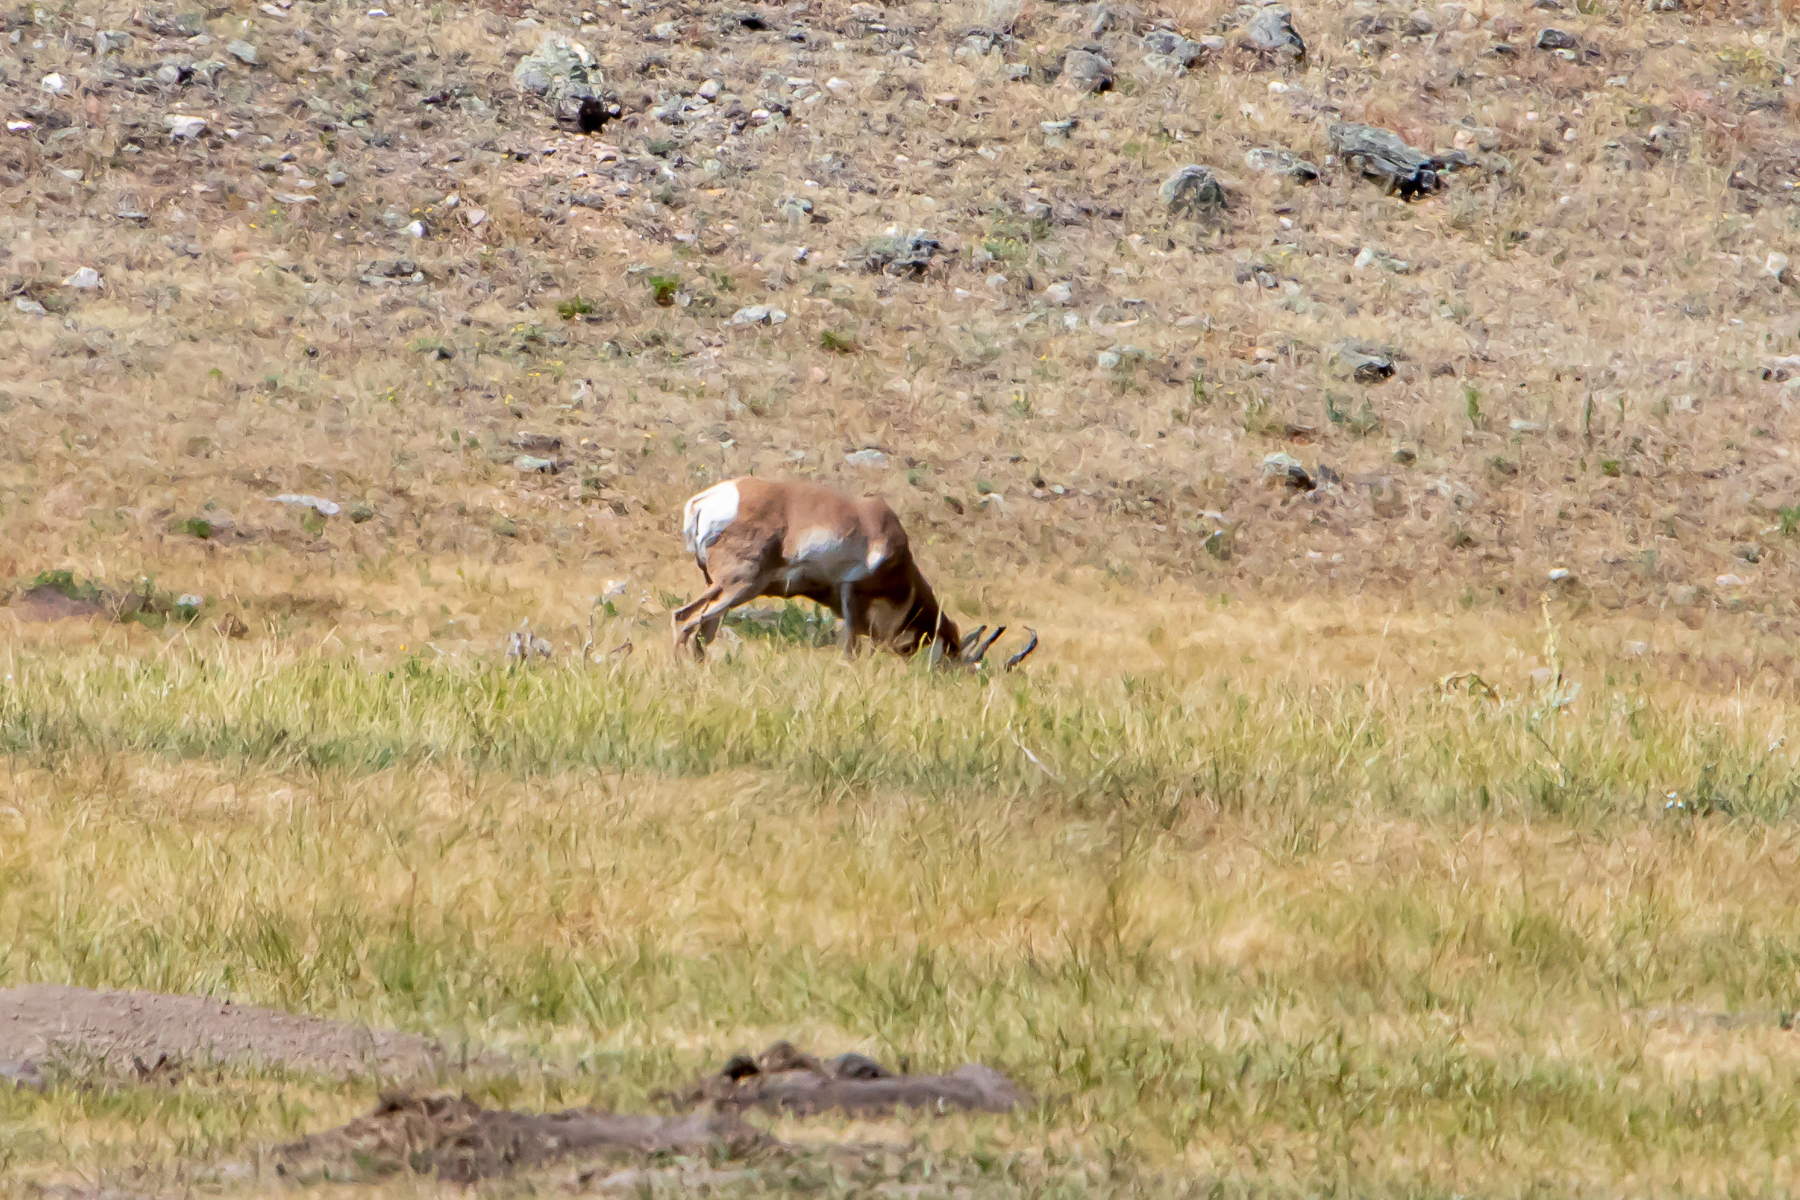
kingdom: Animalia
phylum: Chordata
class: Mammalia
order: Artiodactyla
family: Antilocapridae
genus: Antilocapra
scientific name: Antilocapra americana
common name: Pronghorn
